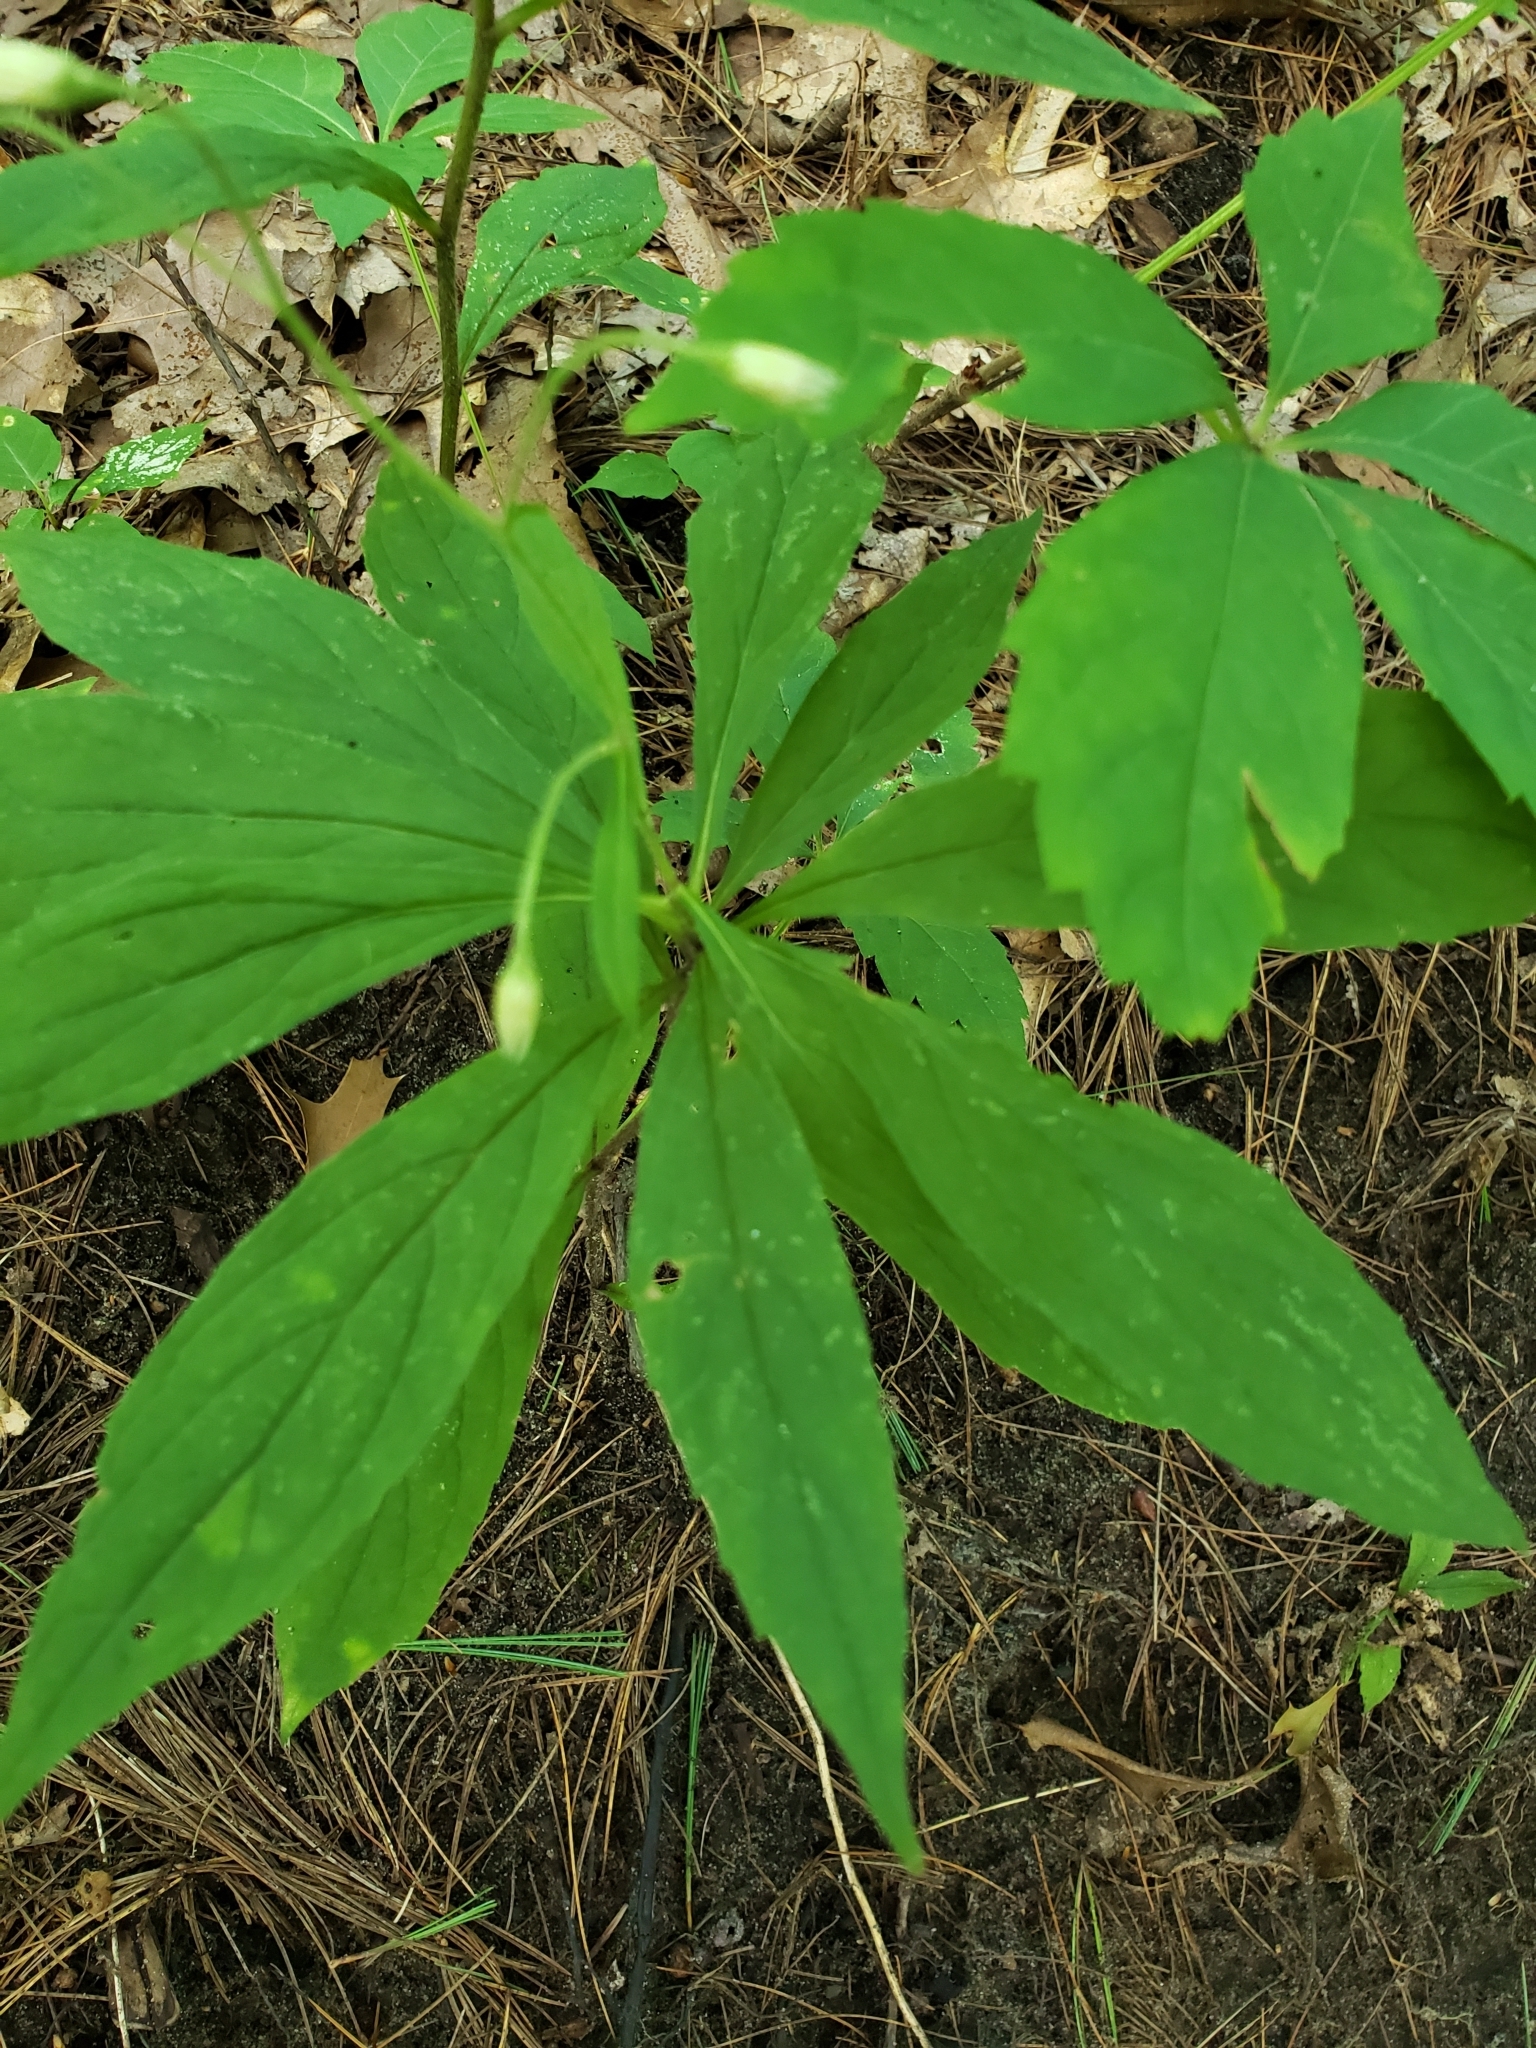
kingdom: Plantae
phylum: Tracheophyta
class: Magnoliopsida
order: Asterales
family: Asteraceae
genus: Oclemena
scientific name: Oclemena acuminata
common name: Mountain aster
